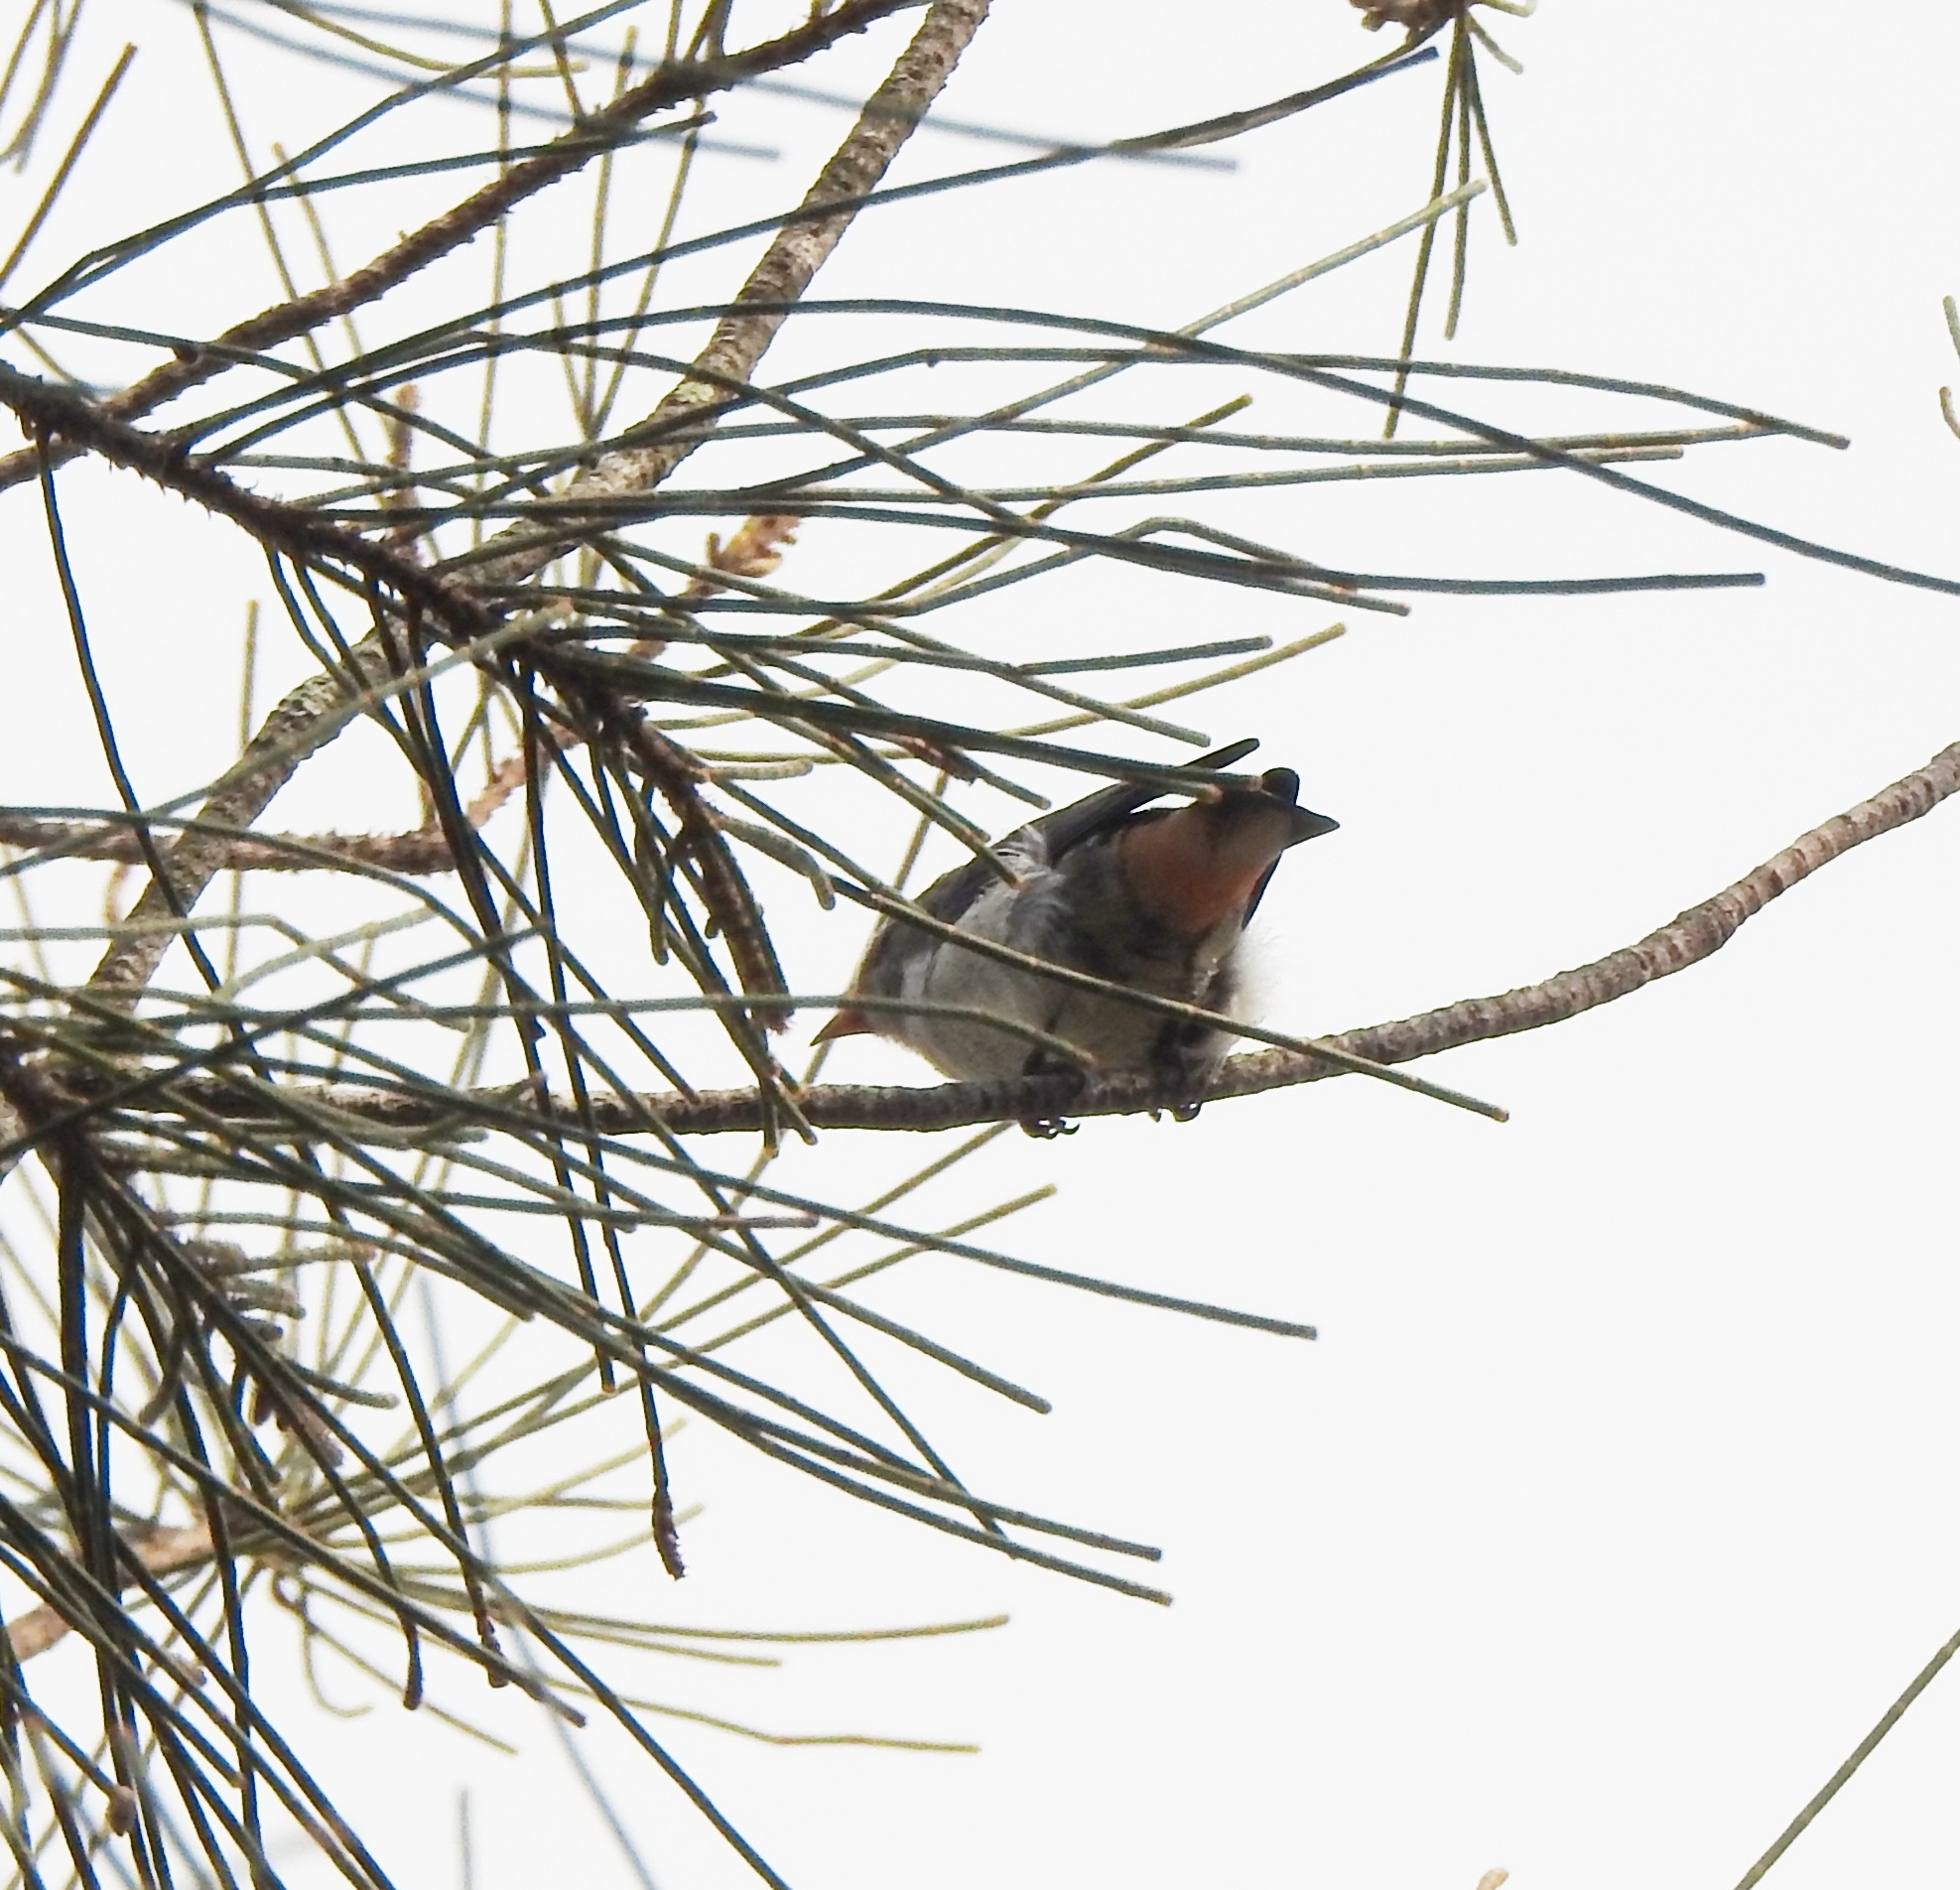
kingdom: Animalia
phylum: Chordata
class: Aves
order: Passeriformes
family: Dicaeidae
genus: Dicaeum
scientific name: Dicaeum hirundinaceum
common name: Mistletoebird
